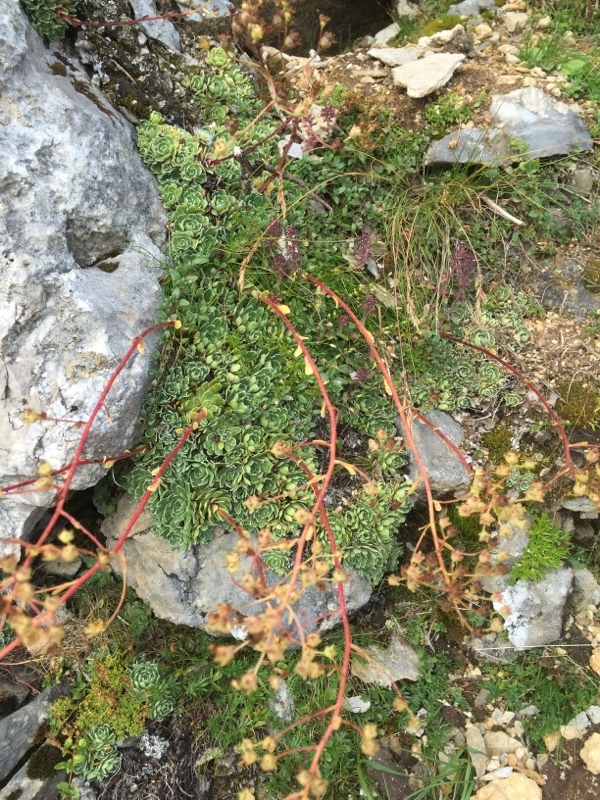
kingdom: Plantae
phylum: Tracheophyta
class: Magnoliopsida
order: Saxifragales
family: Saxifragaceae
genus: Saxifraga
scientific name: Saxifraga paniculata
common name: Livelong saxifrage
